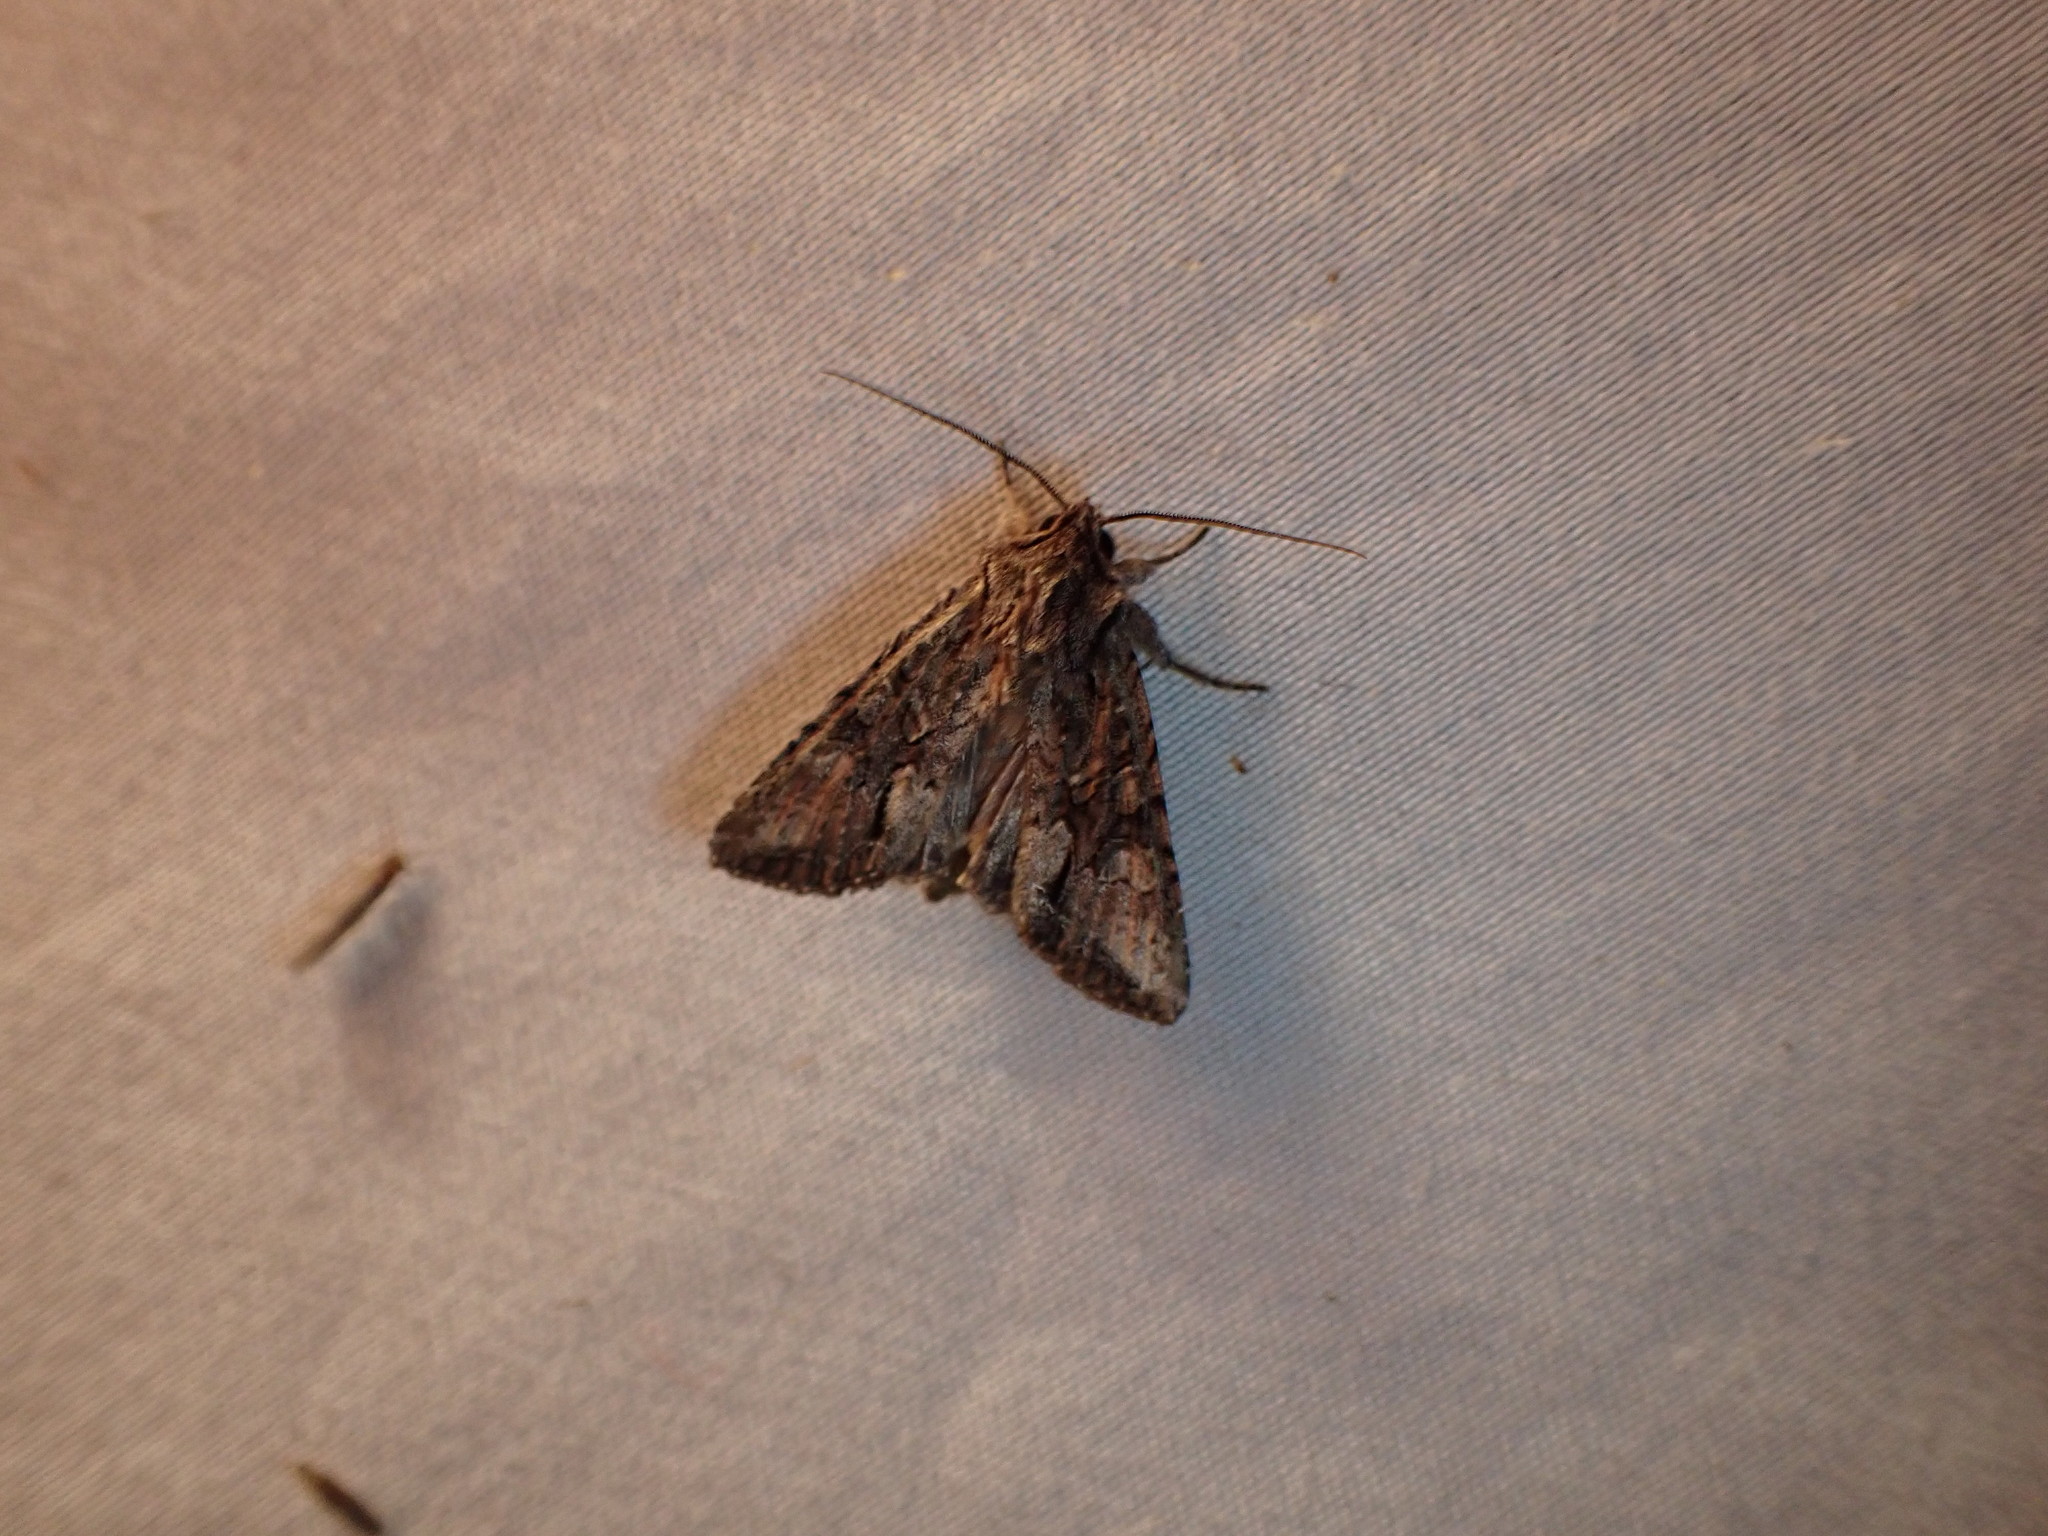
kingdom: Animalia
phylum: Arthropoda
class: Insecta
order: Lepidoptera
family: Noctuidae
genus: Ichneutica
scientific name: Ichneutica mutans
